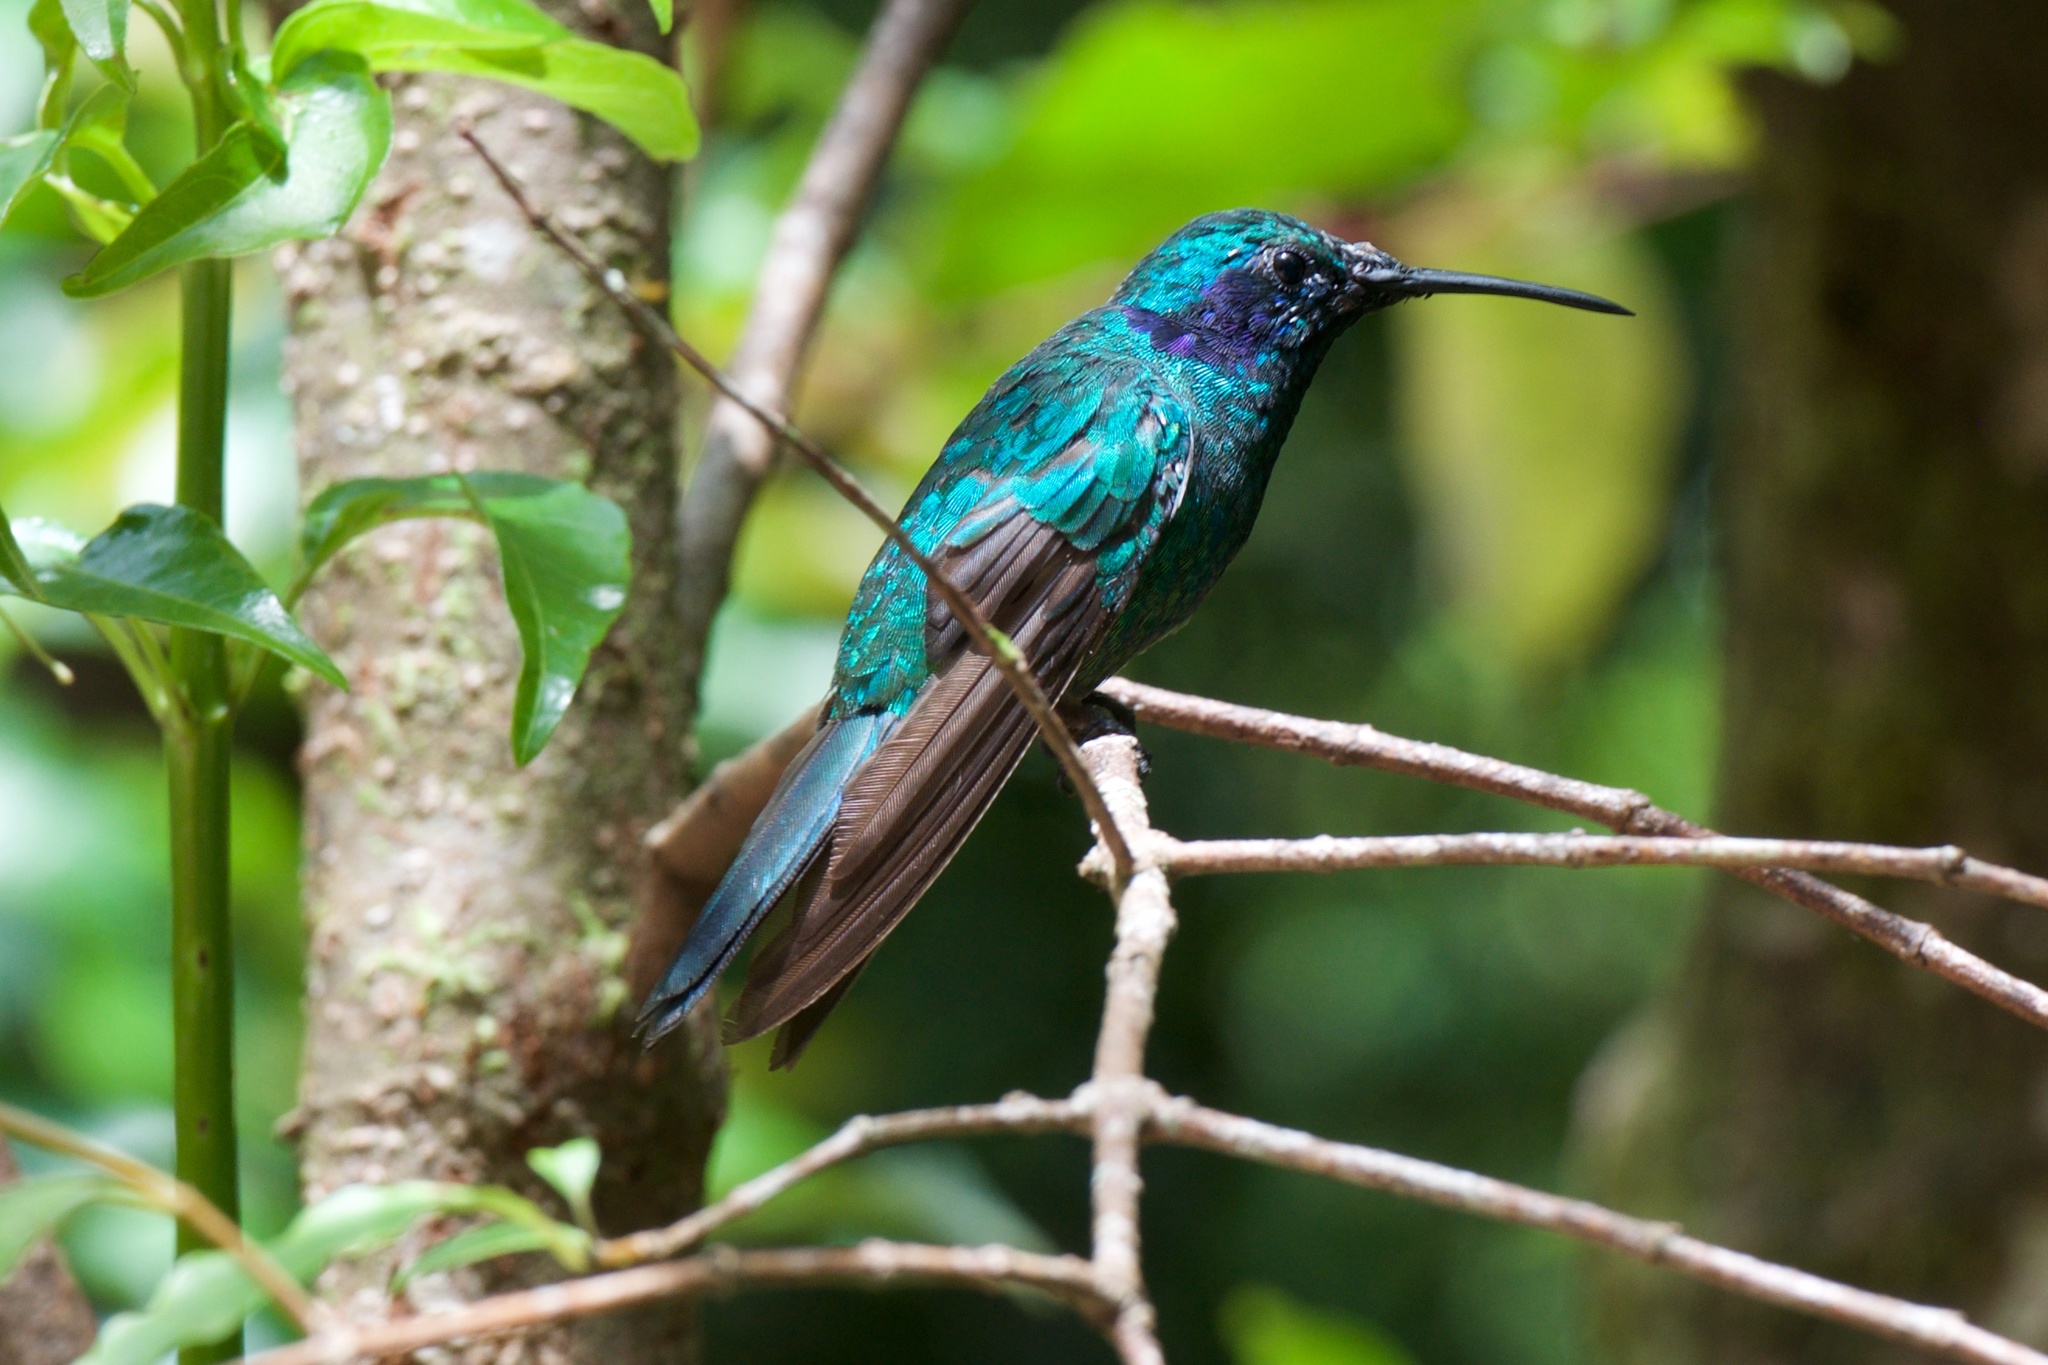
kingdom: Animalia
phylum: Chordata
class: Aves
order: Apodiformes
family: Trochilidae
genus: Colibri
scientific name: Colibri cyanotus
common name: Lesser violetear
